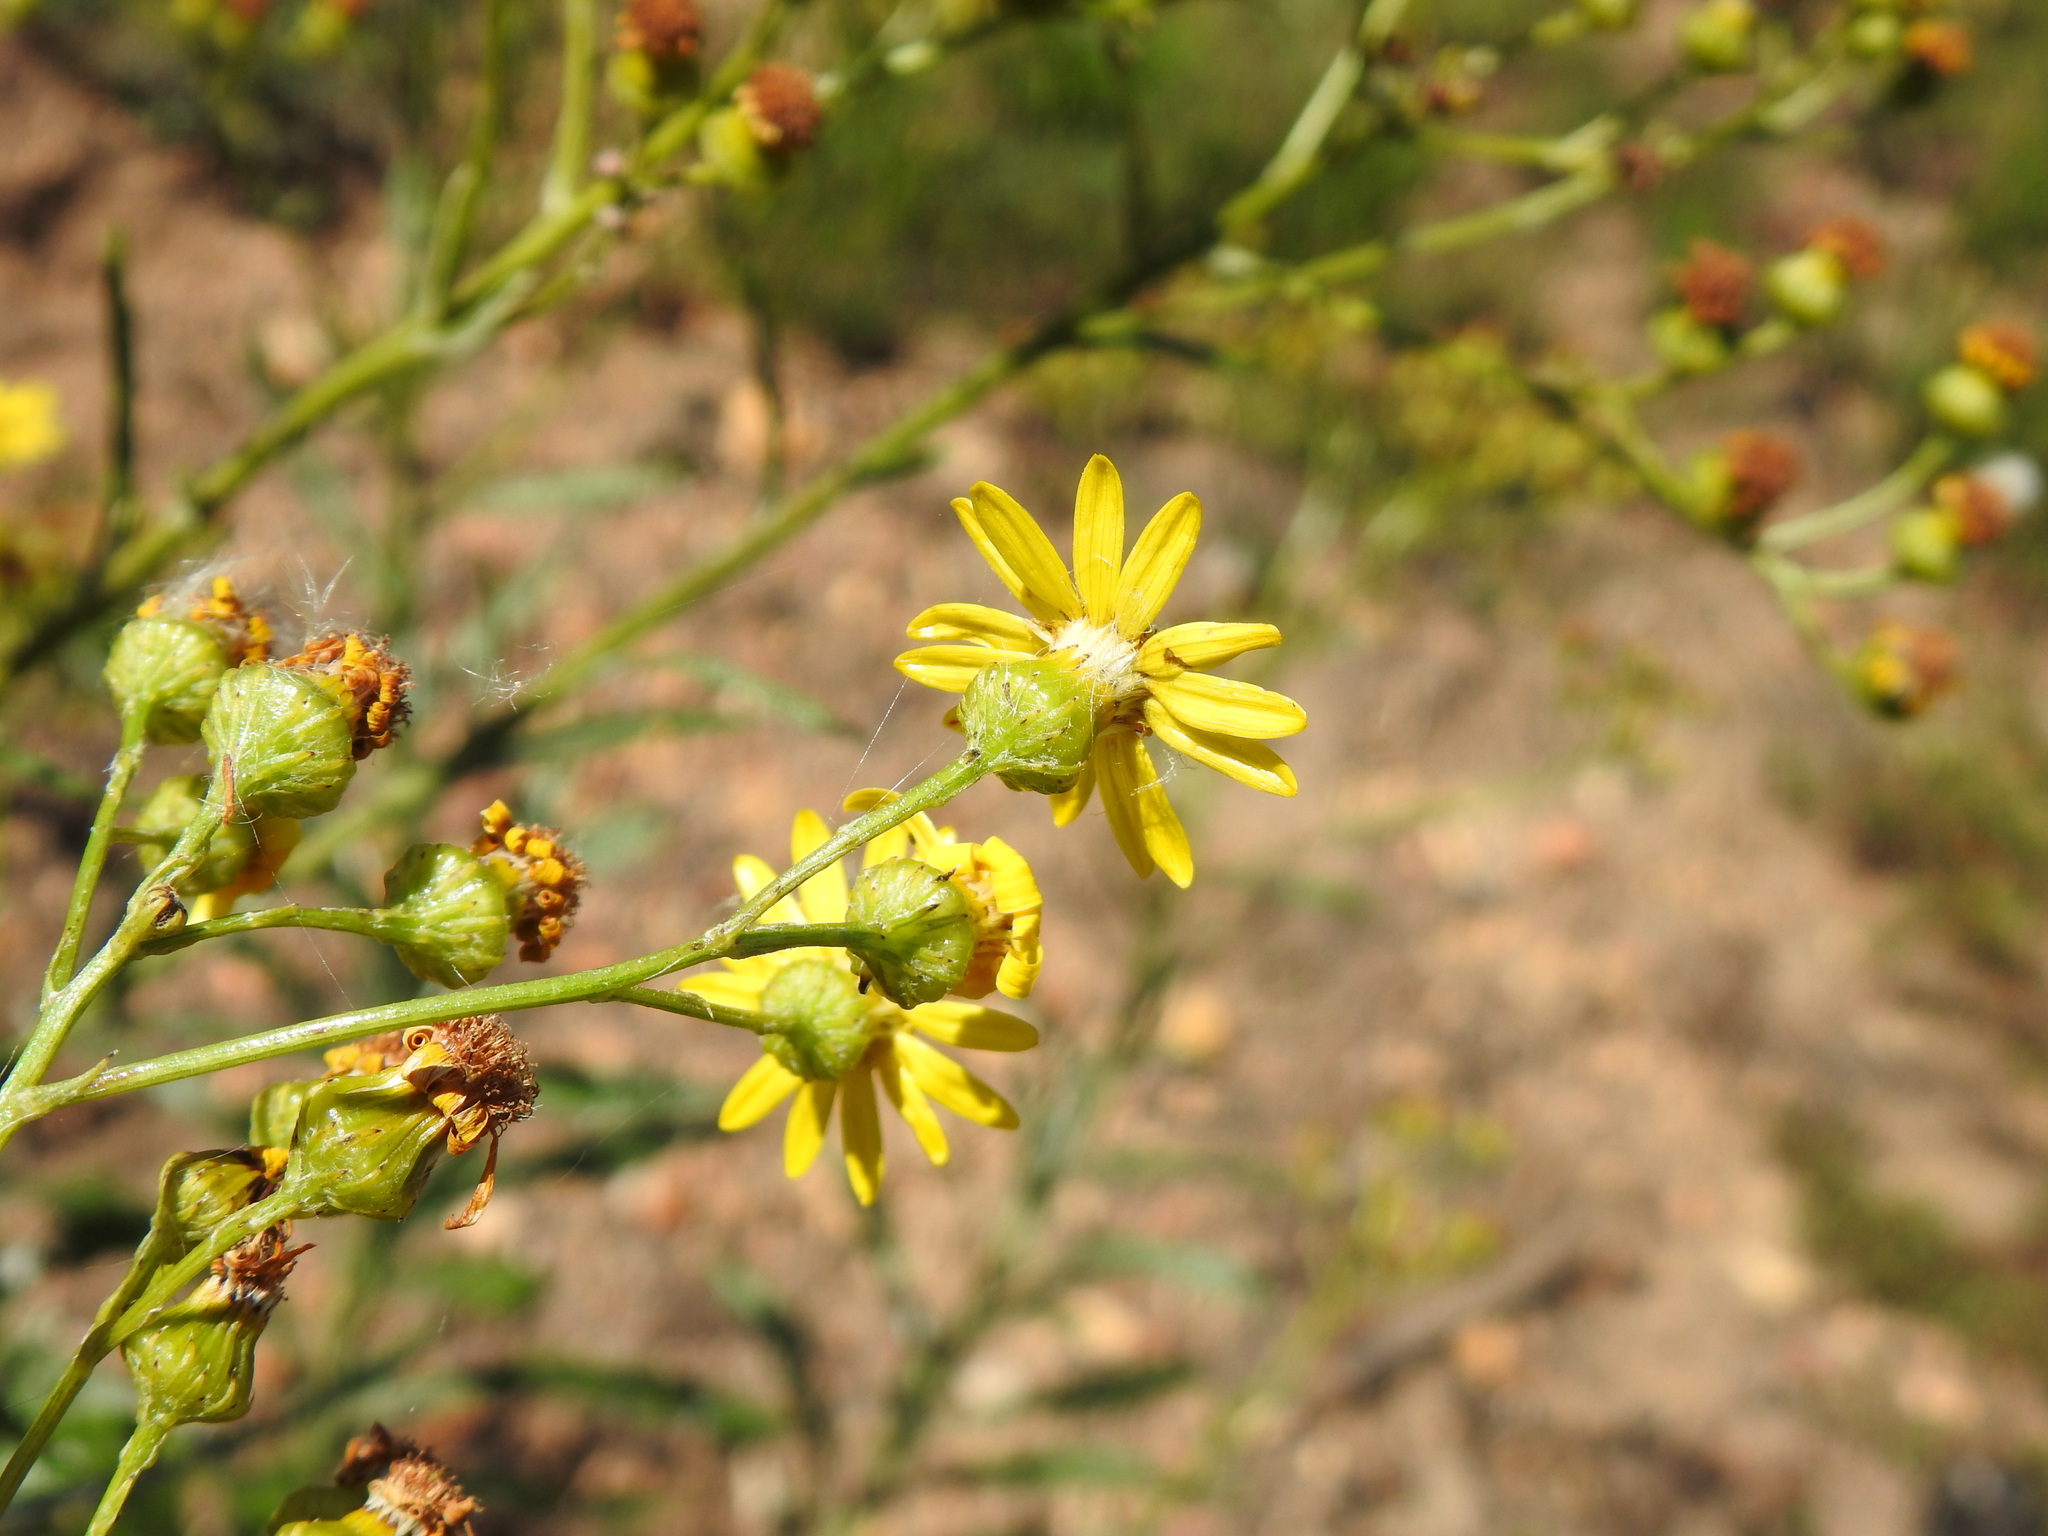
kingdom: Plantae
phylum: Tracheophyta
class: Magnoliopsida
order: Asterales
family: Asteraceae
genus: Senecio
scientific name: Senecio pterophorus
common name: Shoddy ragwort
